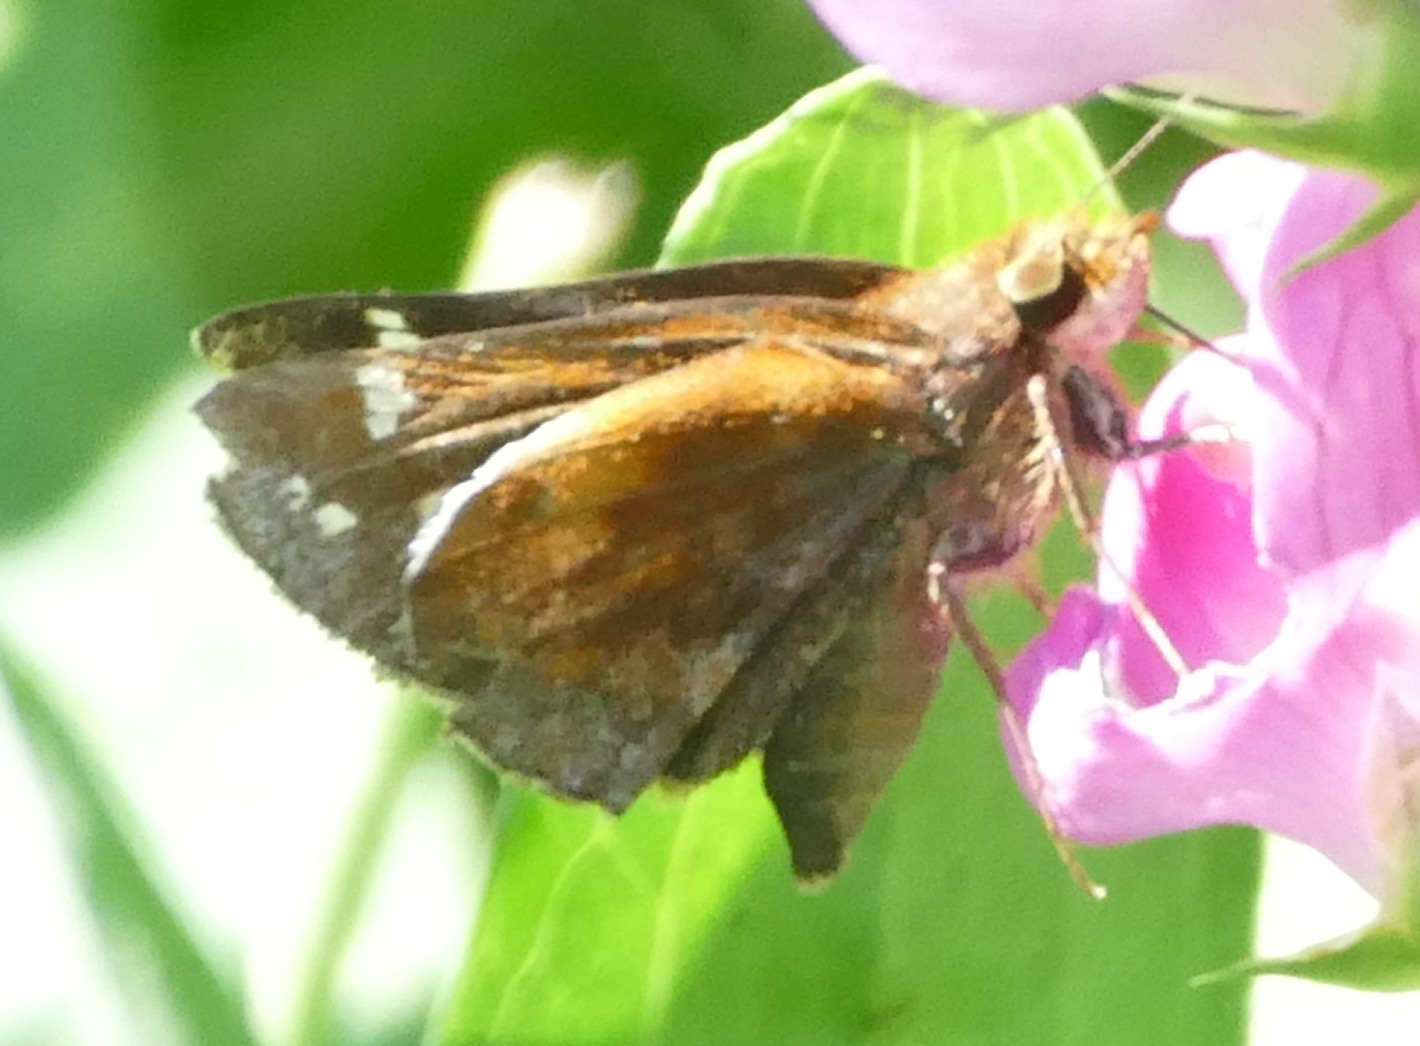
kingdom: Animalia
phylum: Arthropoda
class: Insecta
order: Lepidoptera
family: Hesperiidae
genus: Lon
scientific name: Lon zabulon
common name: Zabulon skipper
